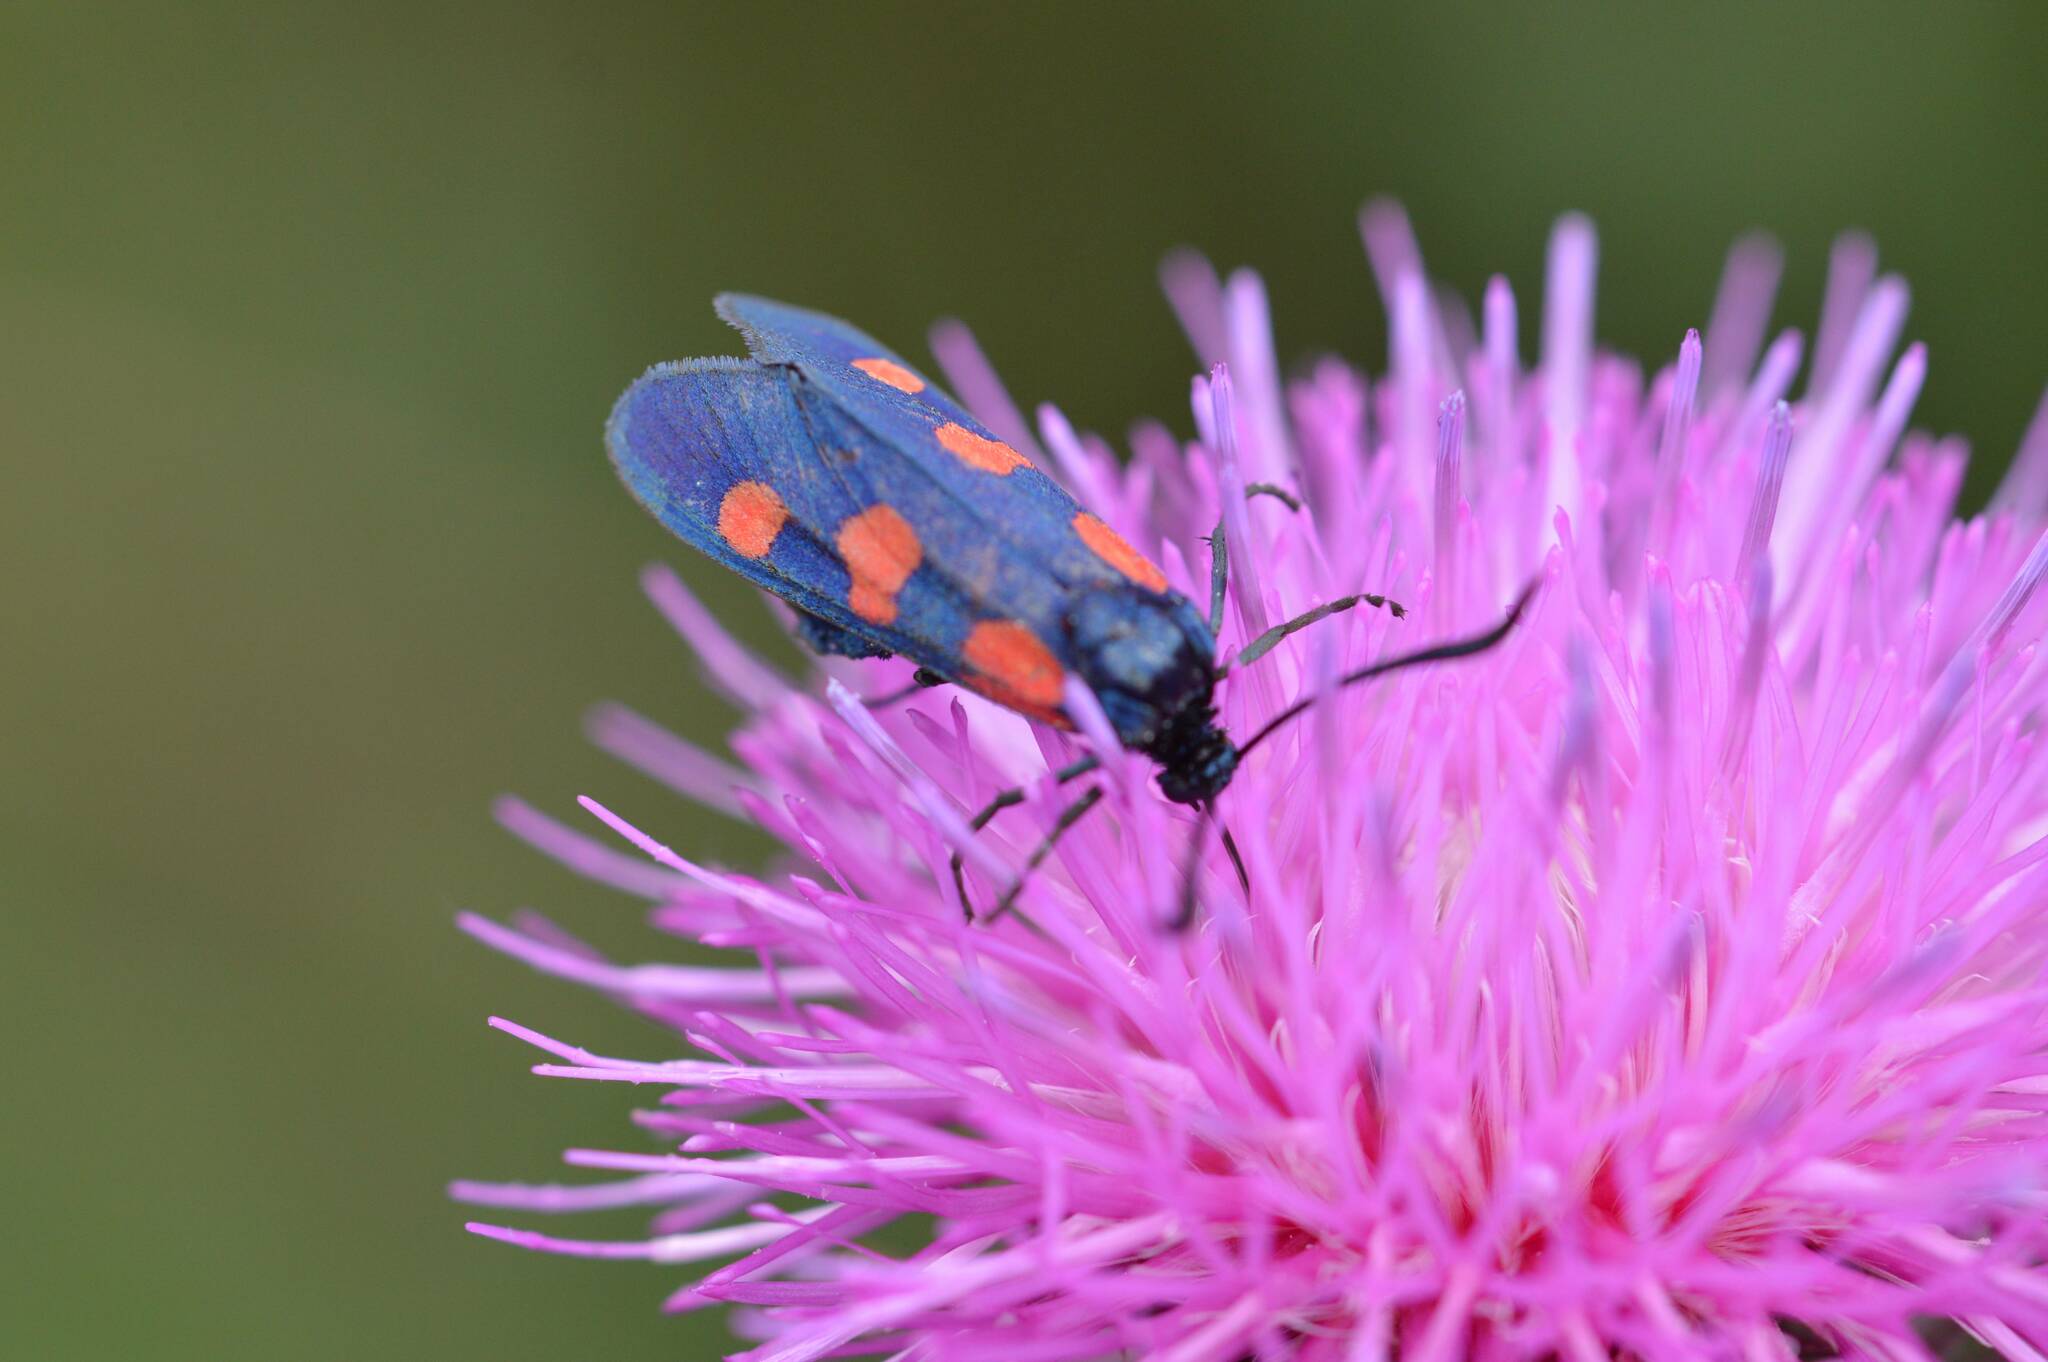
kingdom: Animalia
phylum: Arthropoda
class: Insecta
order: Lepidoptera
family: Zygaenidae
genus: Zygaena
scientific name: Zygaena trifolii
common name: Five-spot burnet
